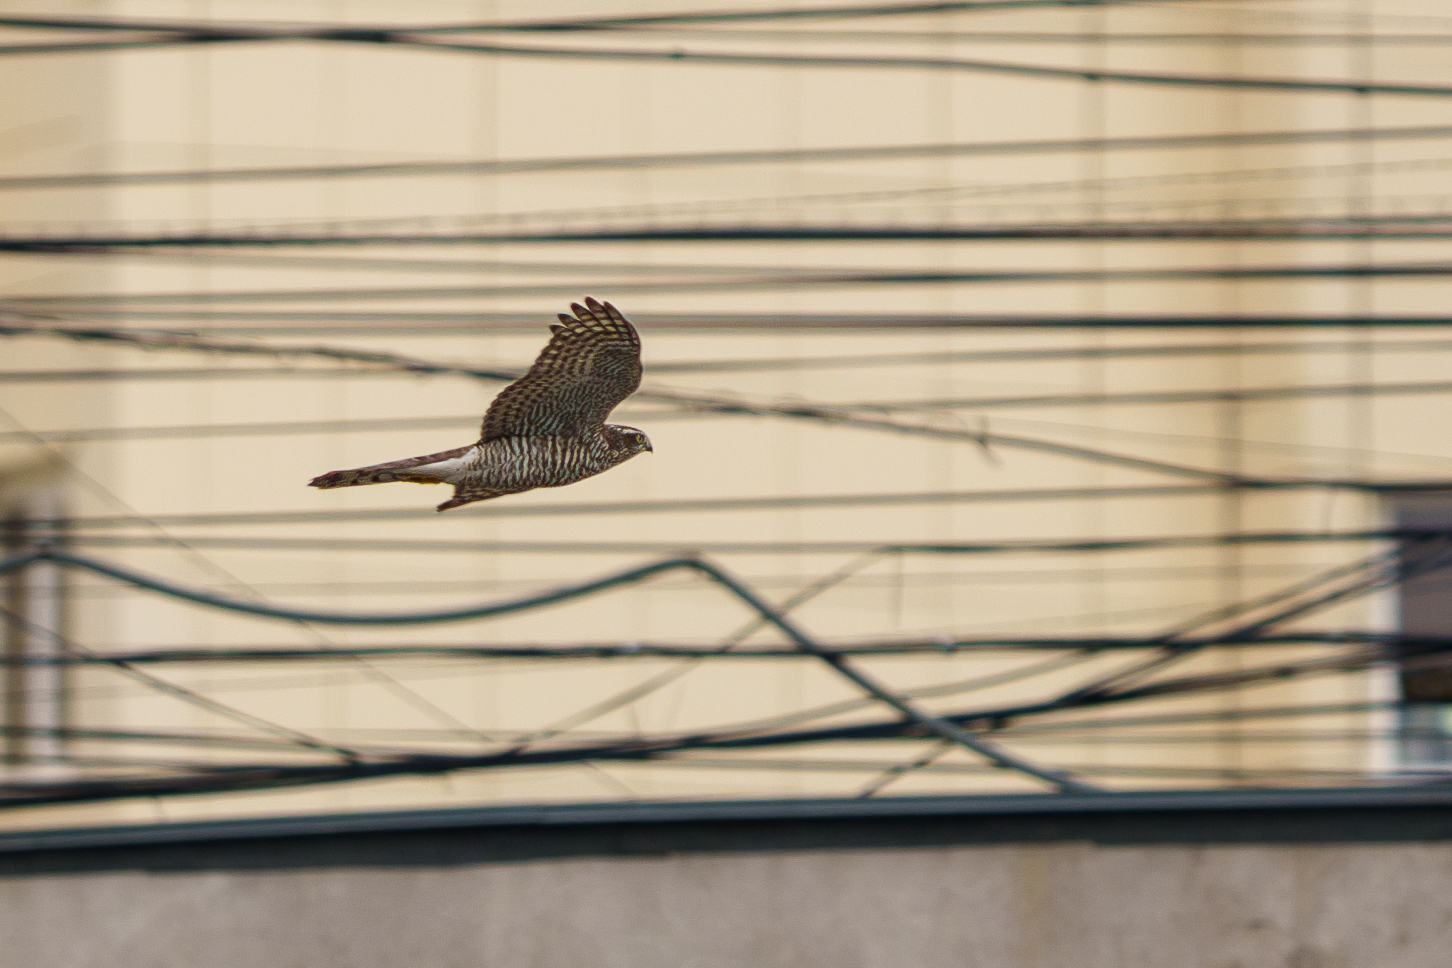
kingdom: Animalia
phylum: Chordata
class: Aves
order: Accipitriformes
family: Accipitridae
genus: Accipiter
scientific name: Accipiter nisus
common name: Eurasian sparrowhawk
